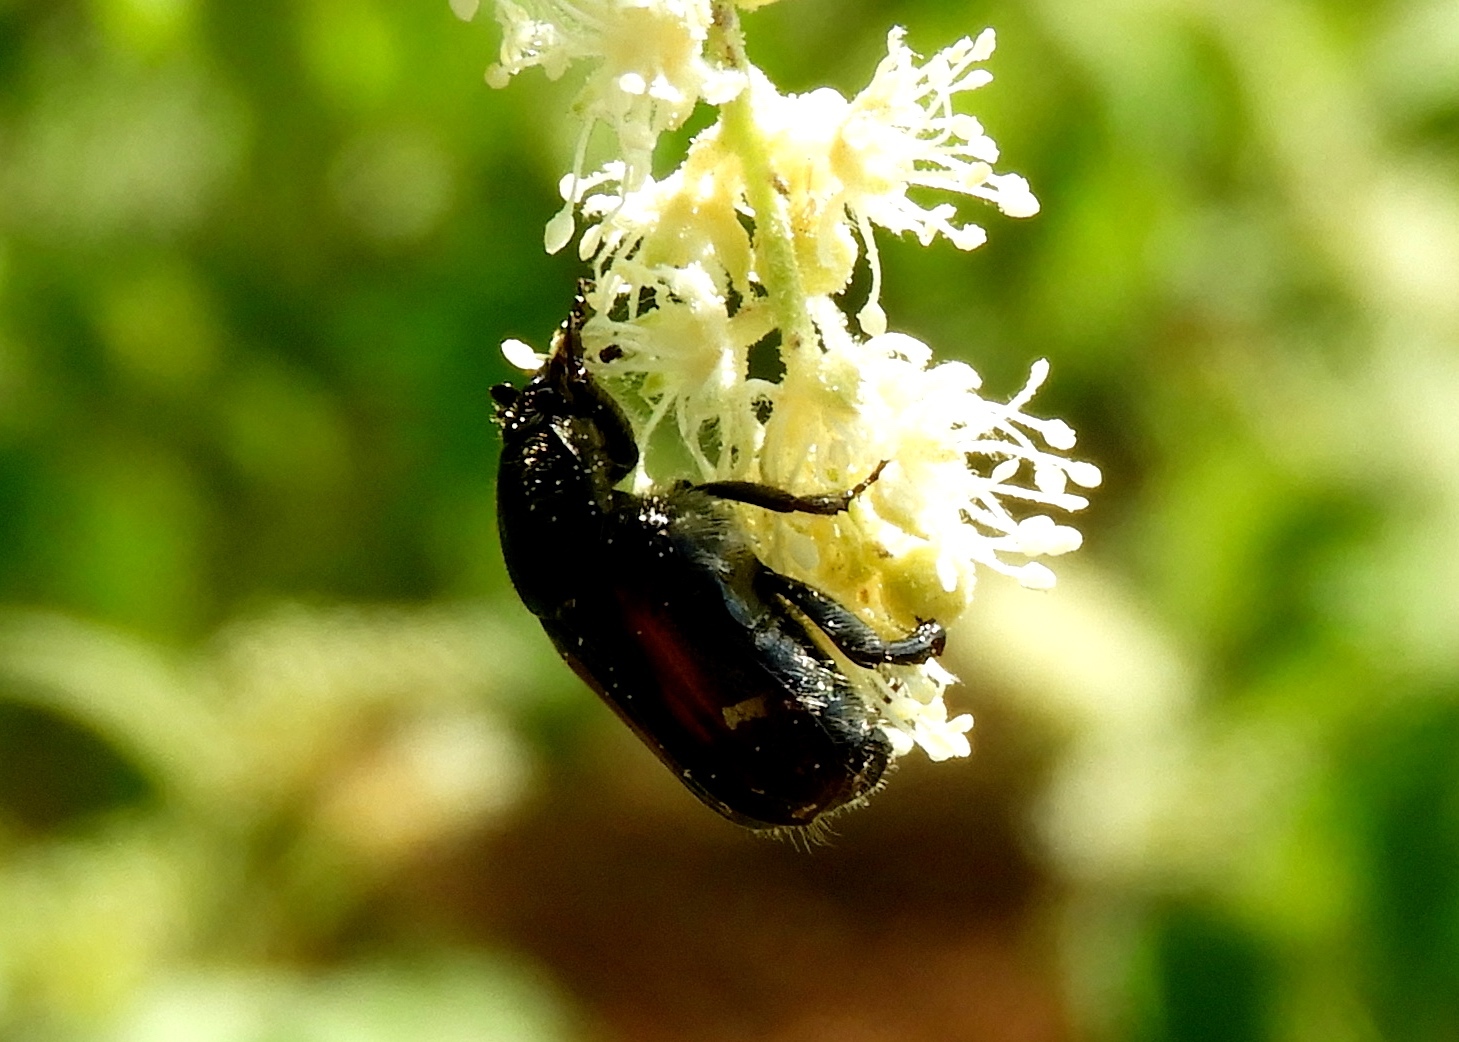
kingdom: Animalia
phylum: Arthropoda
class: Insecta
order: Coleoptera
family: Scarabaeidae
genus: Euphoria
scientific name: Euphoria pulchella
